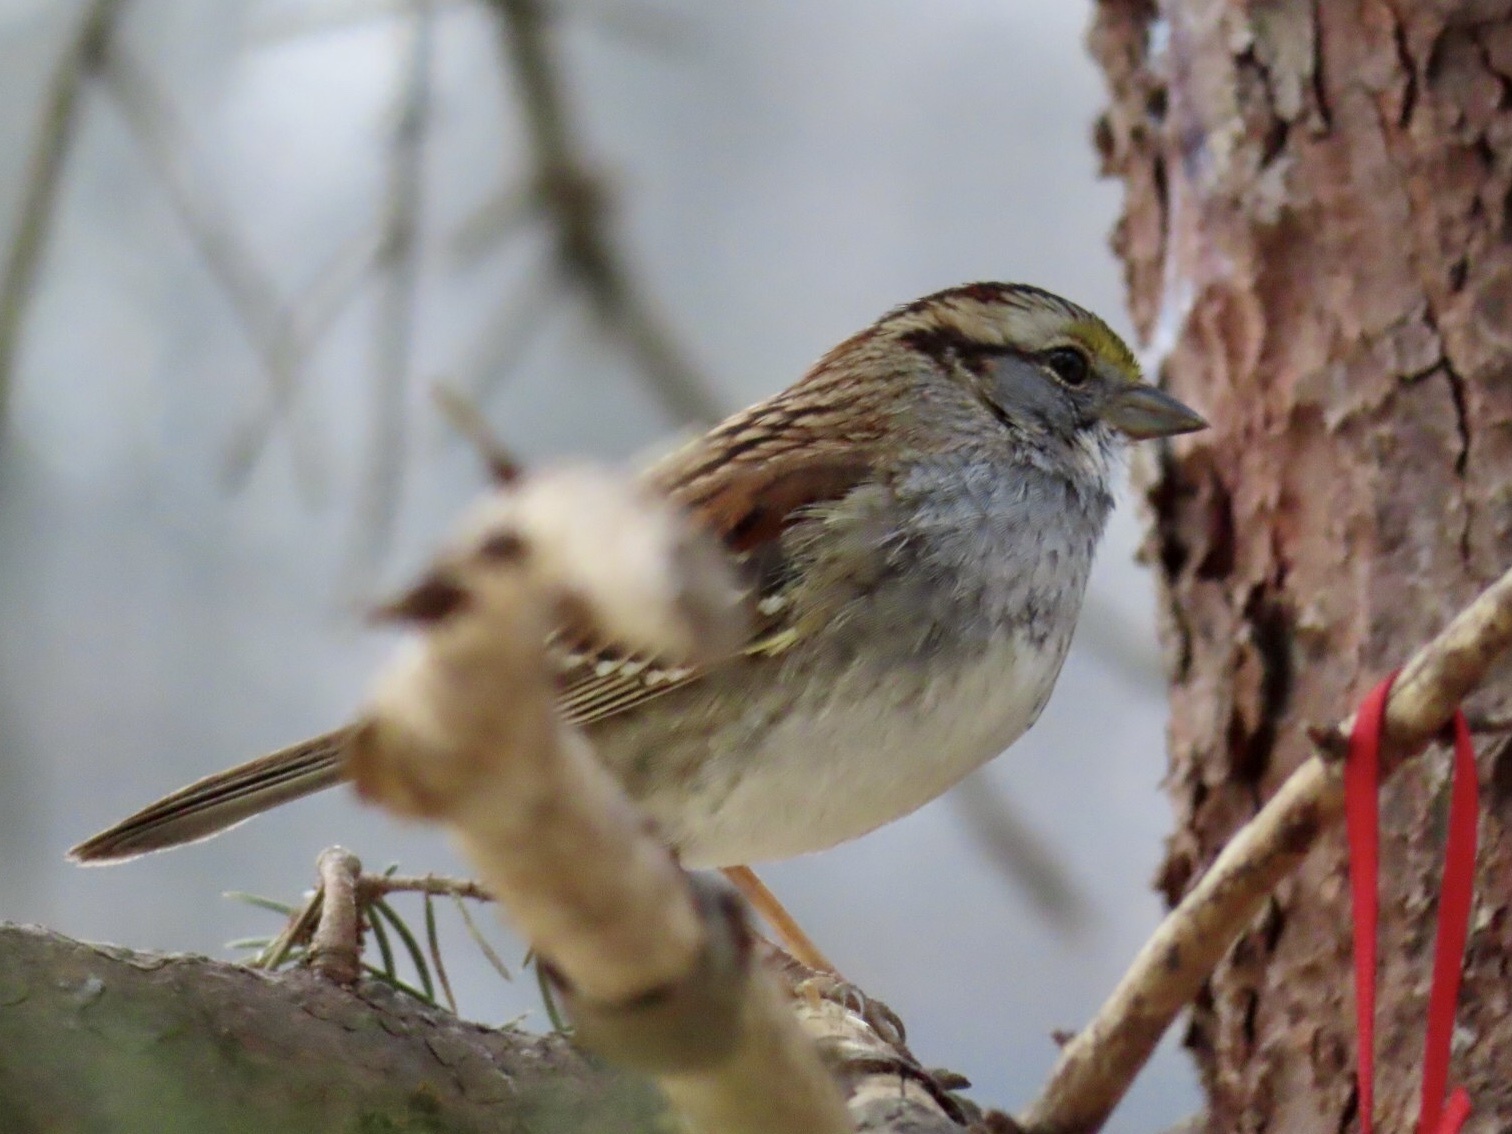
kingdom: Animalia
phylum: Chordata
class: Aves
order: Passeriformes
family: Passerellidae
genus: Zonotrichia
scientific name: Zonotrichia albicollis
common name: White-throated sparrow
